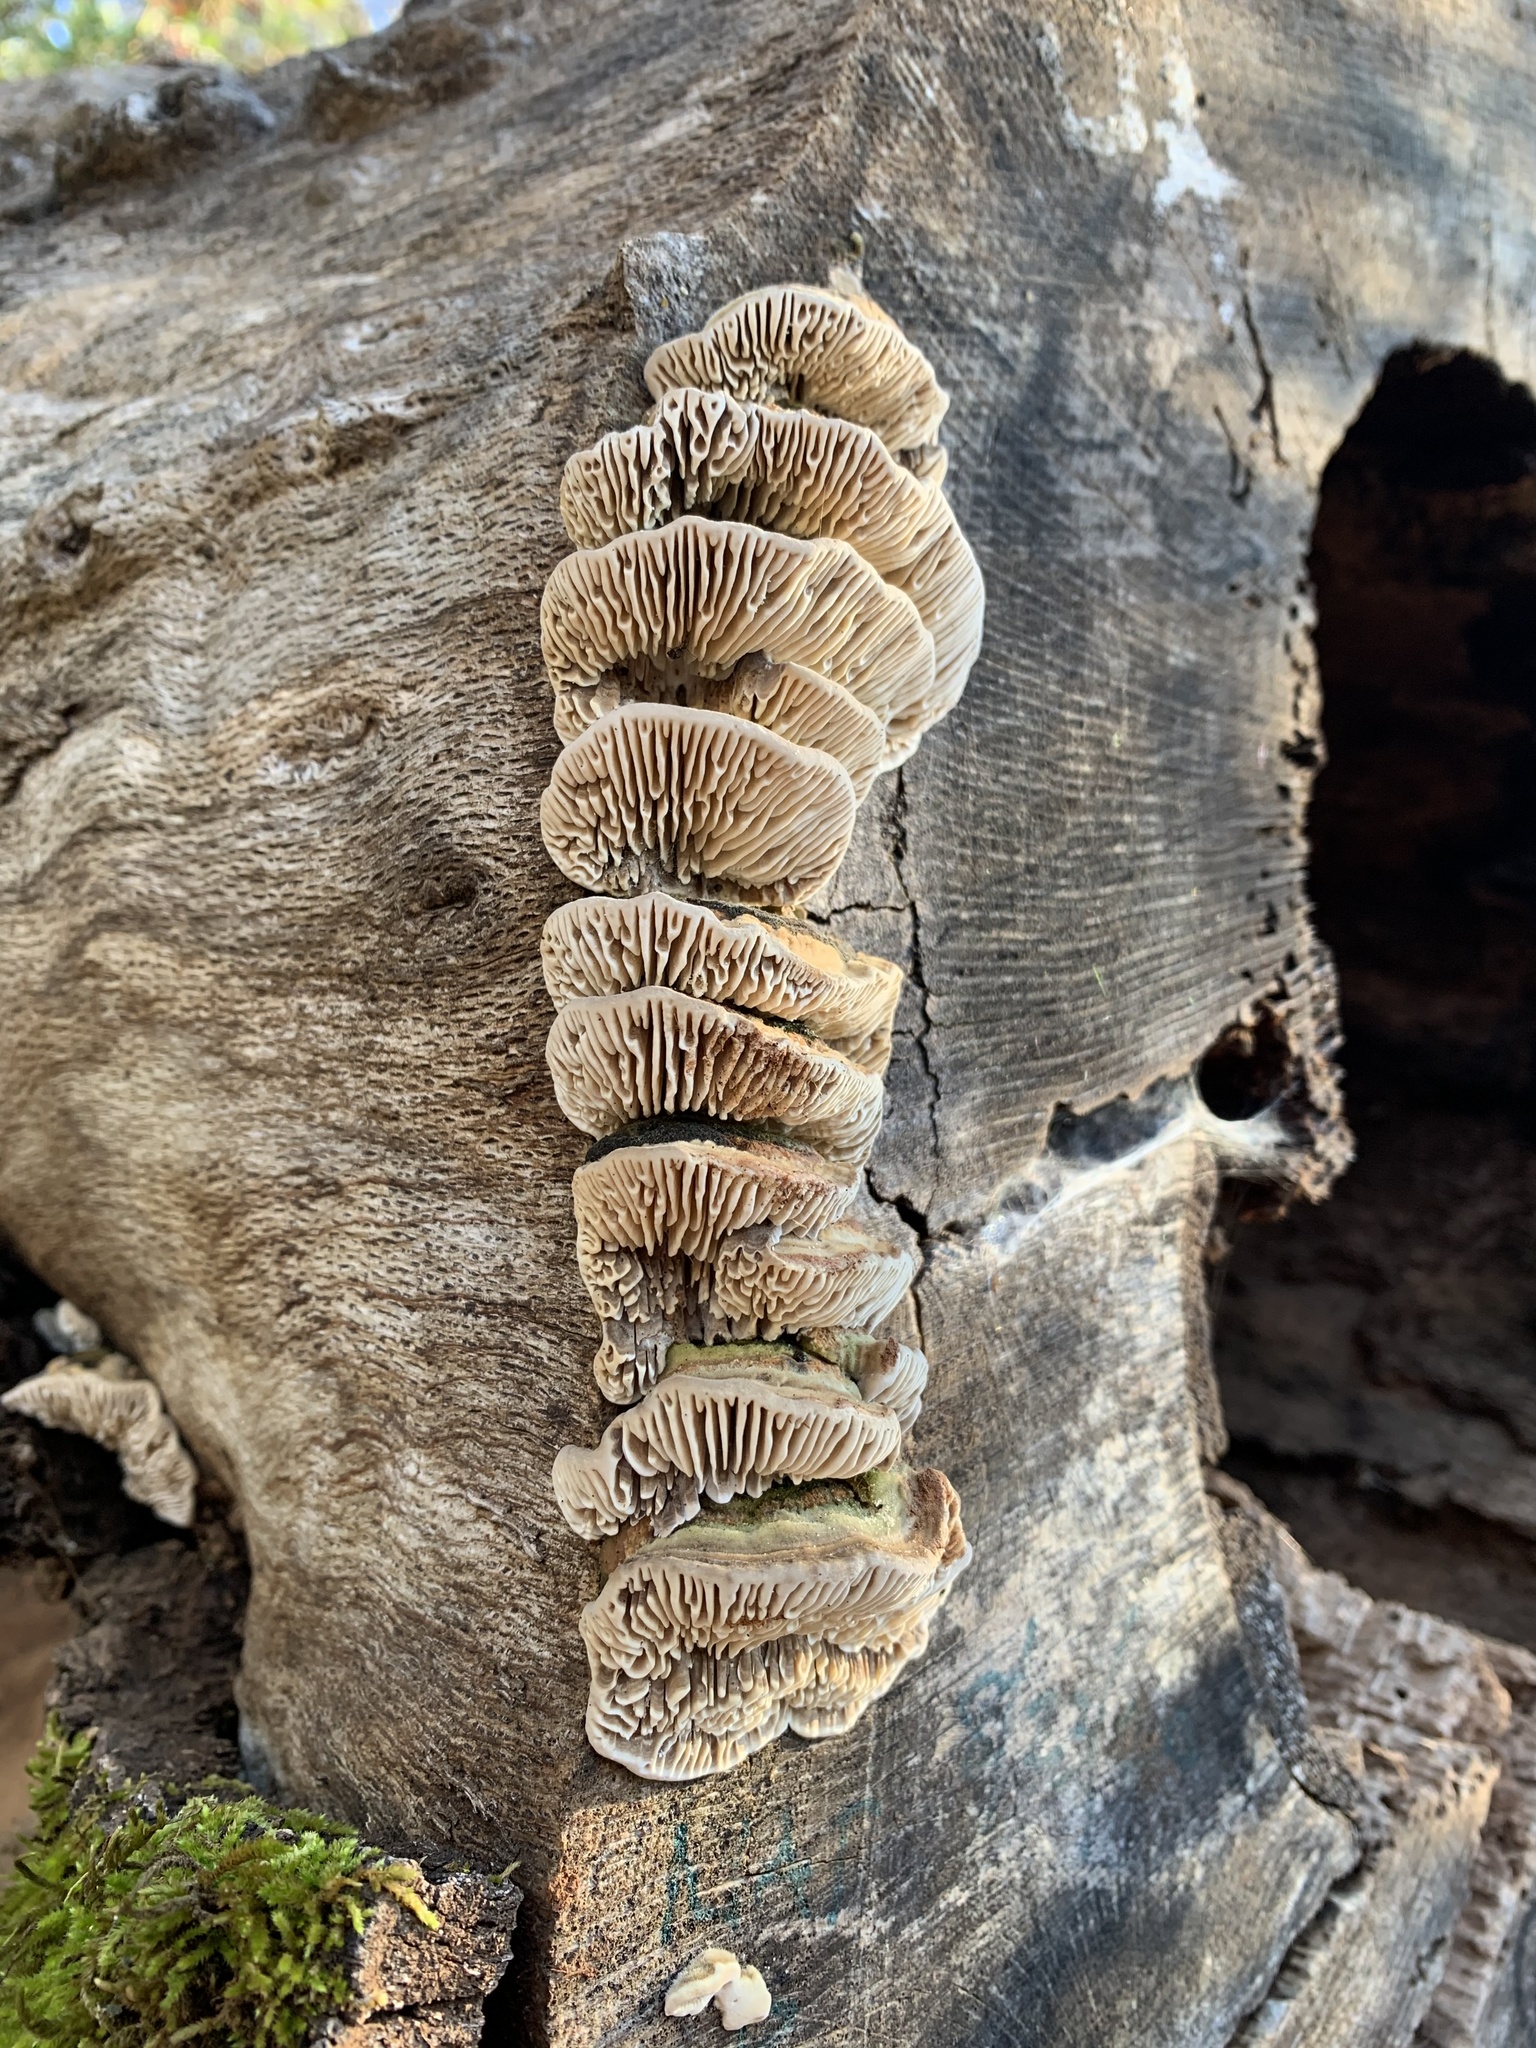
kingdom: Fungi
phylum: Basidiomycota
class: Agaricomycetes
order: Polyporales
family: Polyporaceae
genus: Lenzites
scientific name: Lenzites betulinus
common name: Birch mazegill
